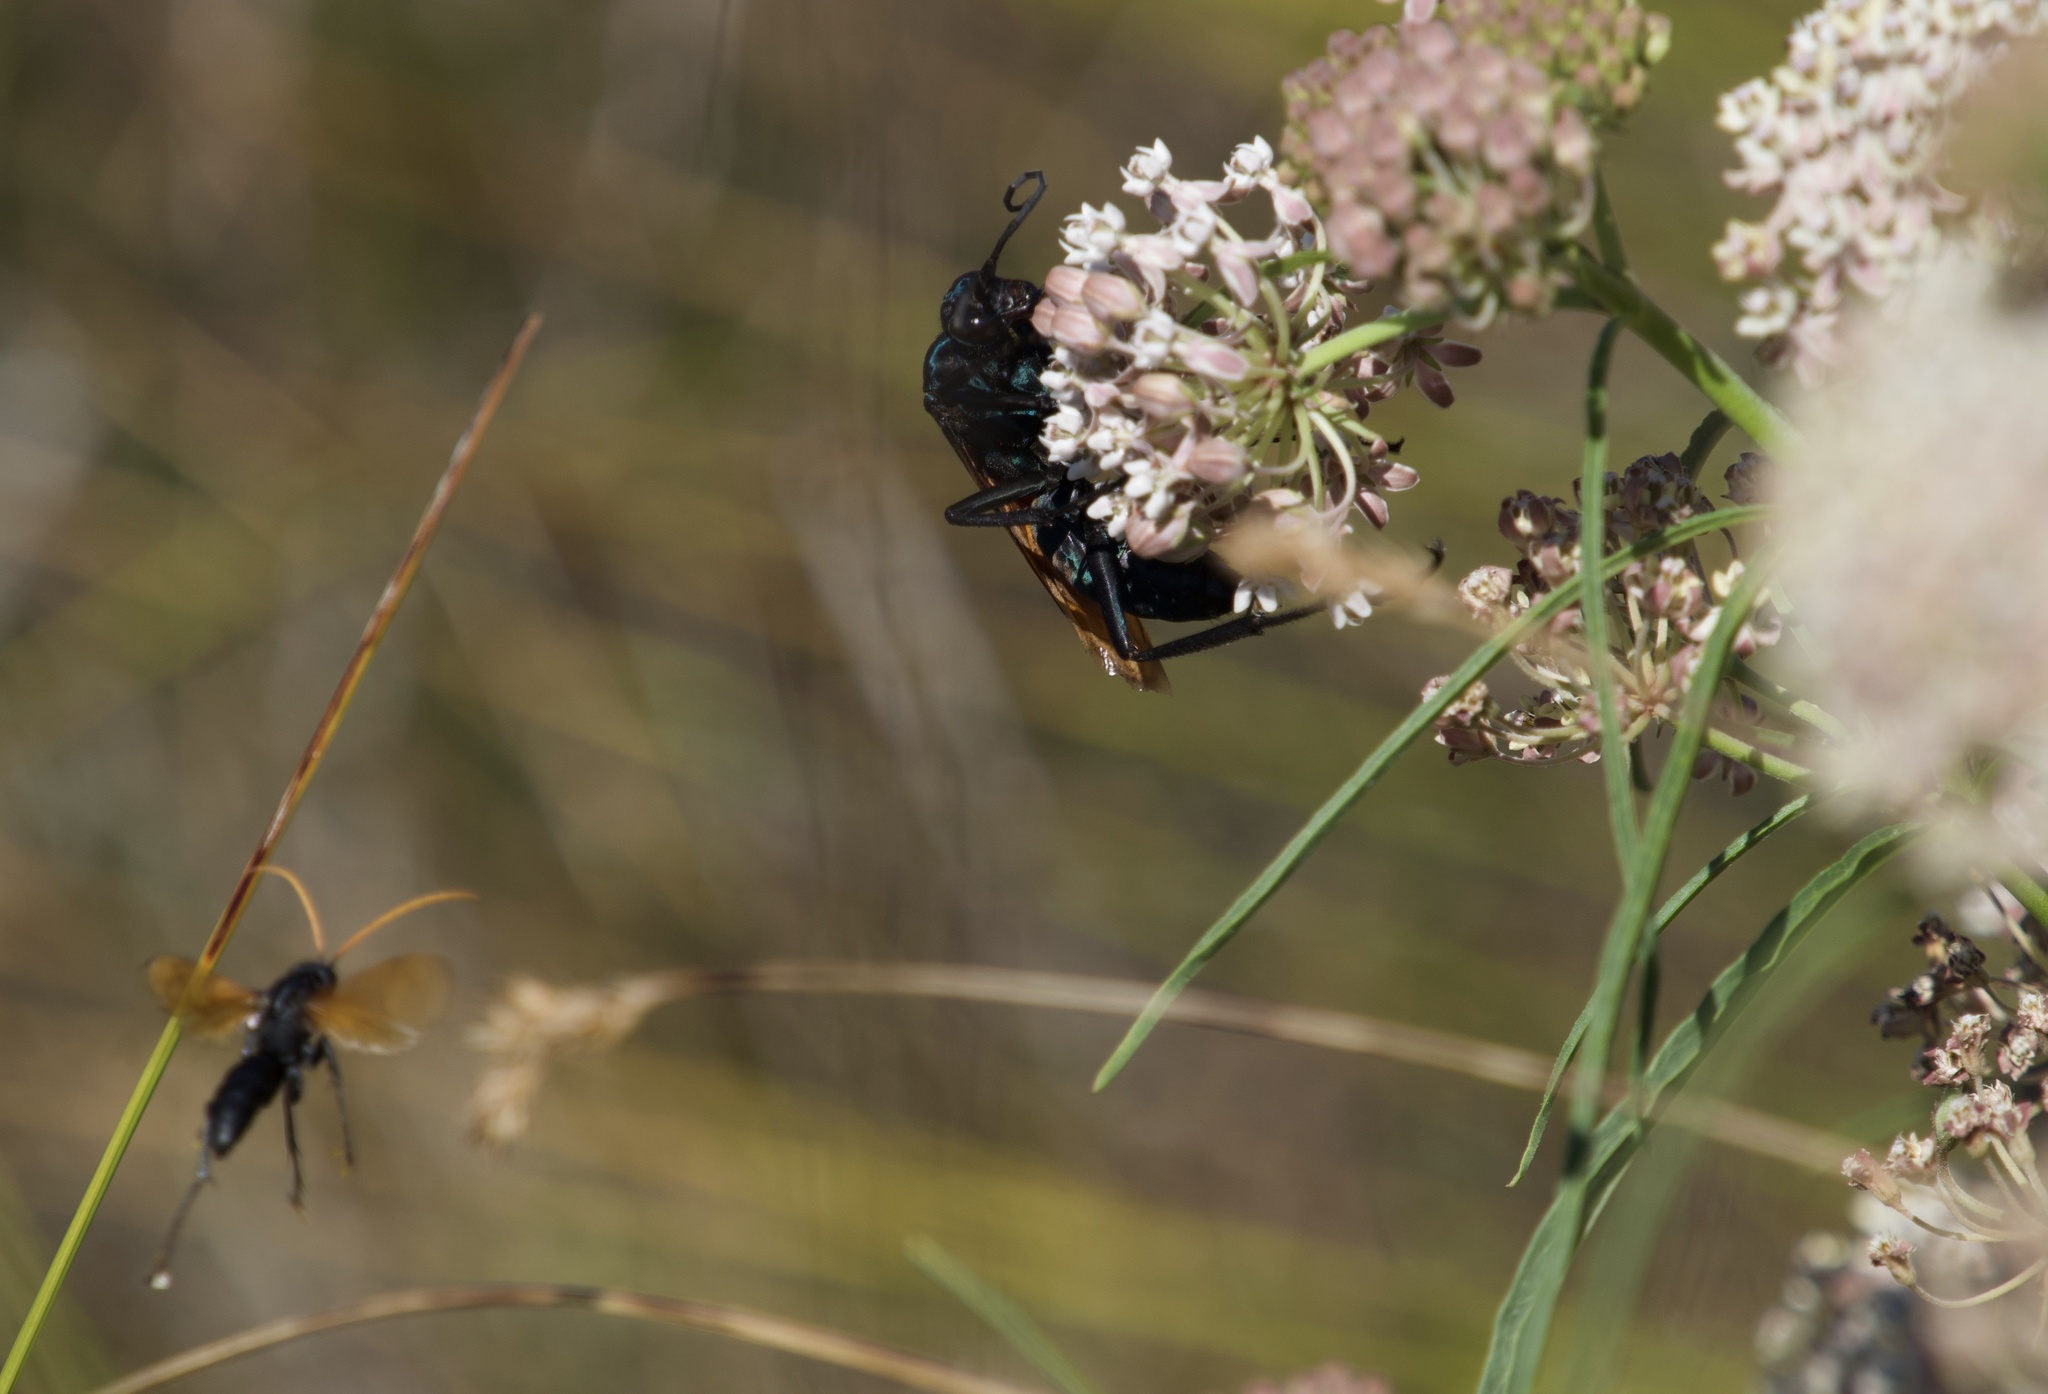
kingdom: Animalia
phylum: Arthropoda
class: Insecta
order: Hymenoptera
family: Pompilidae
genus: Pepsis
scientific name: Pepsis thisbe
